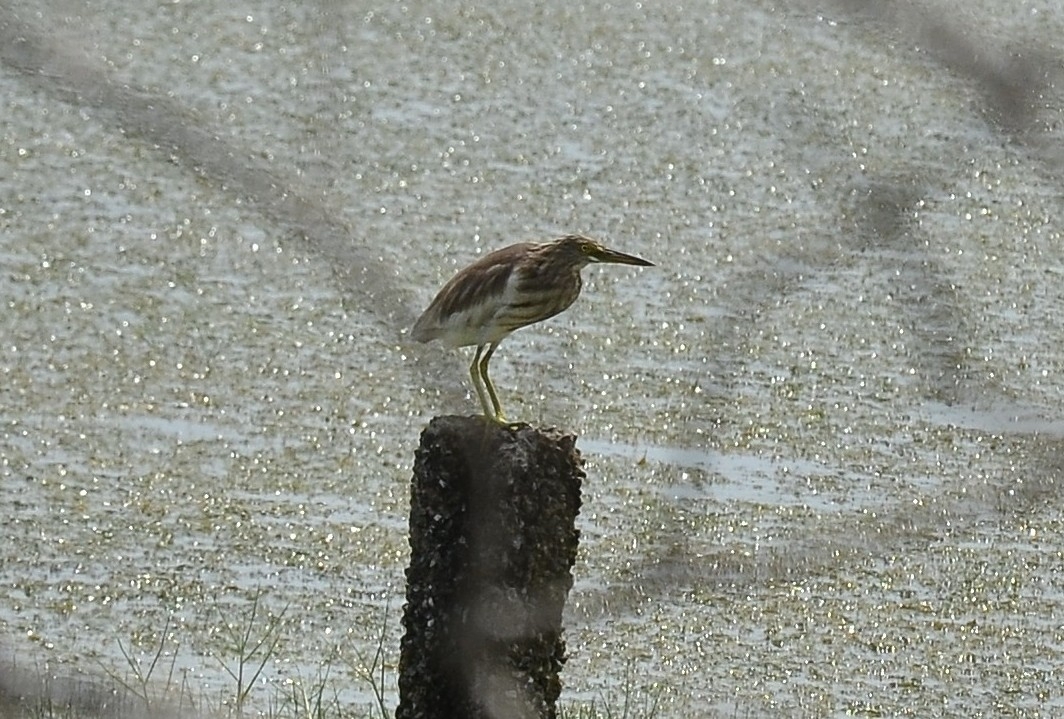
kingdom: Animalia
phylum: Chordata
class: Aves
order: Pelecaniformes
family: Ardeidae
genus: Ardeola
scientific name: Ardeola grayii
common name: Indian pond heron
